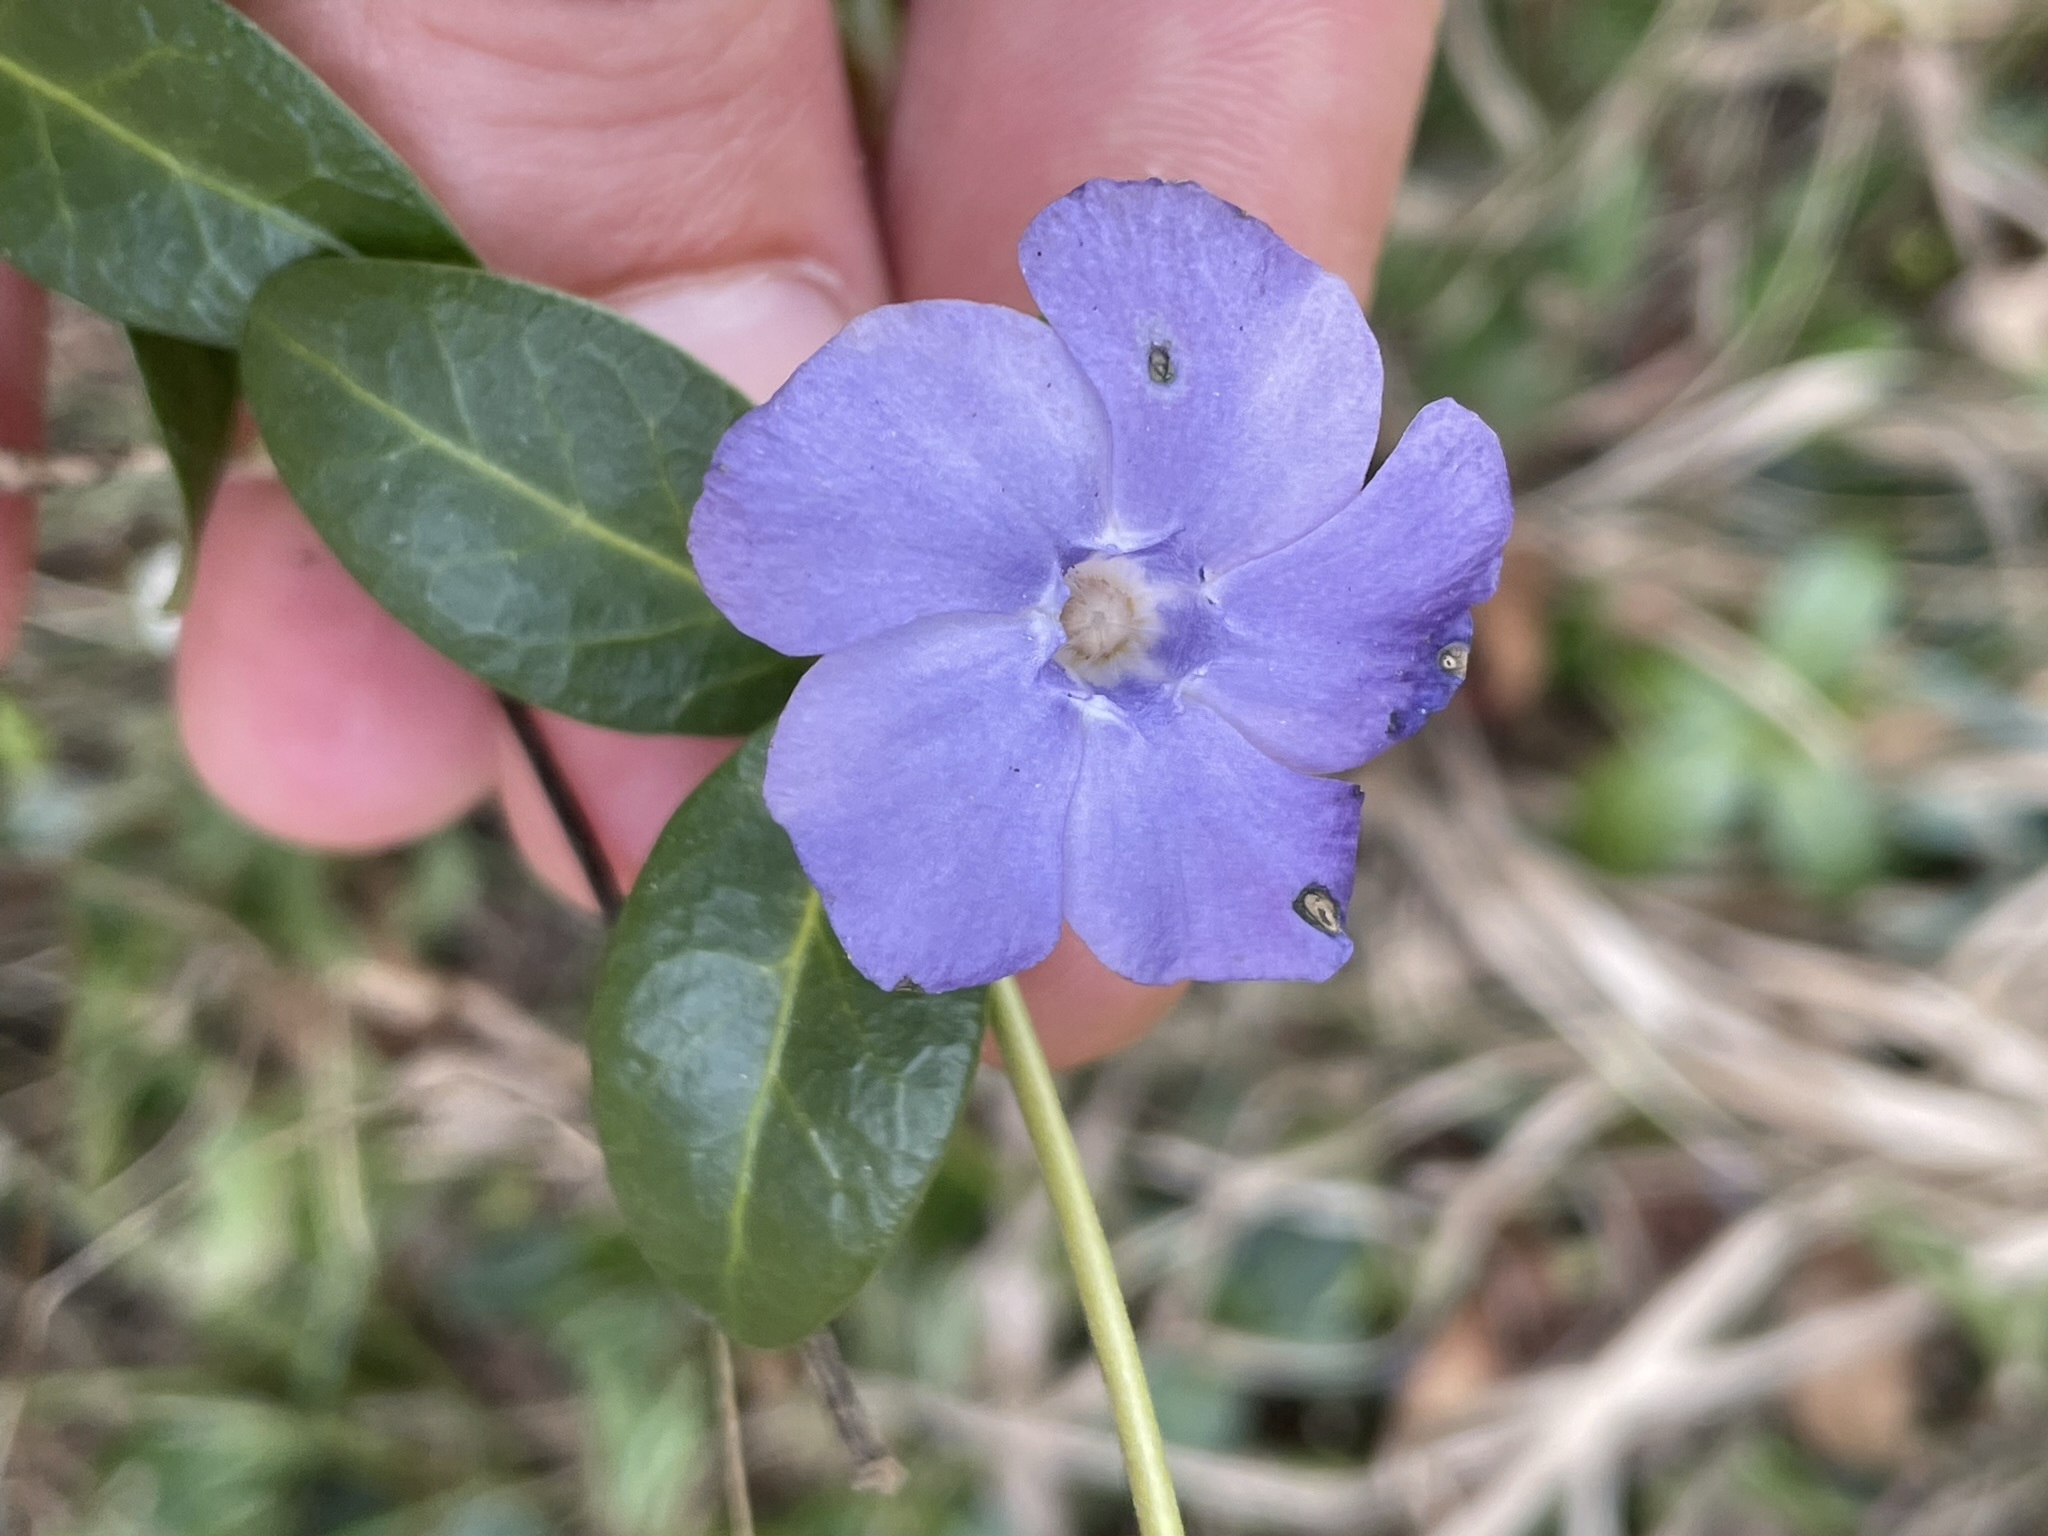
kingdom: Plantae
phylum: Tracheophyta
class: Magnoliopsida
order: Gentianales
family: Apocynaceae
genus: Vinca
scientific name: Vinca minor
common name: Lesser periwinkle
